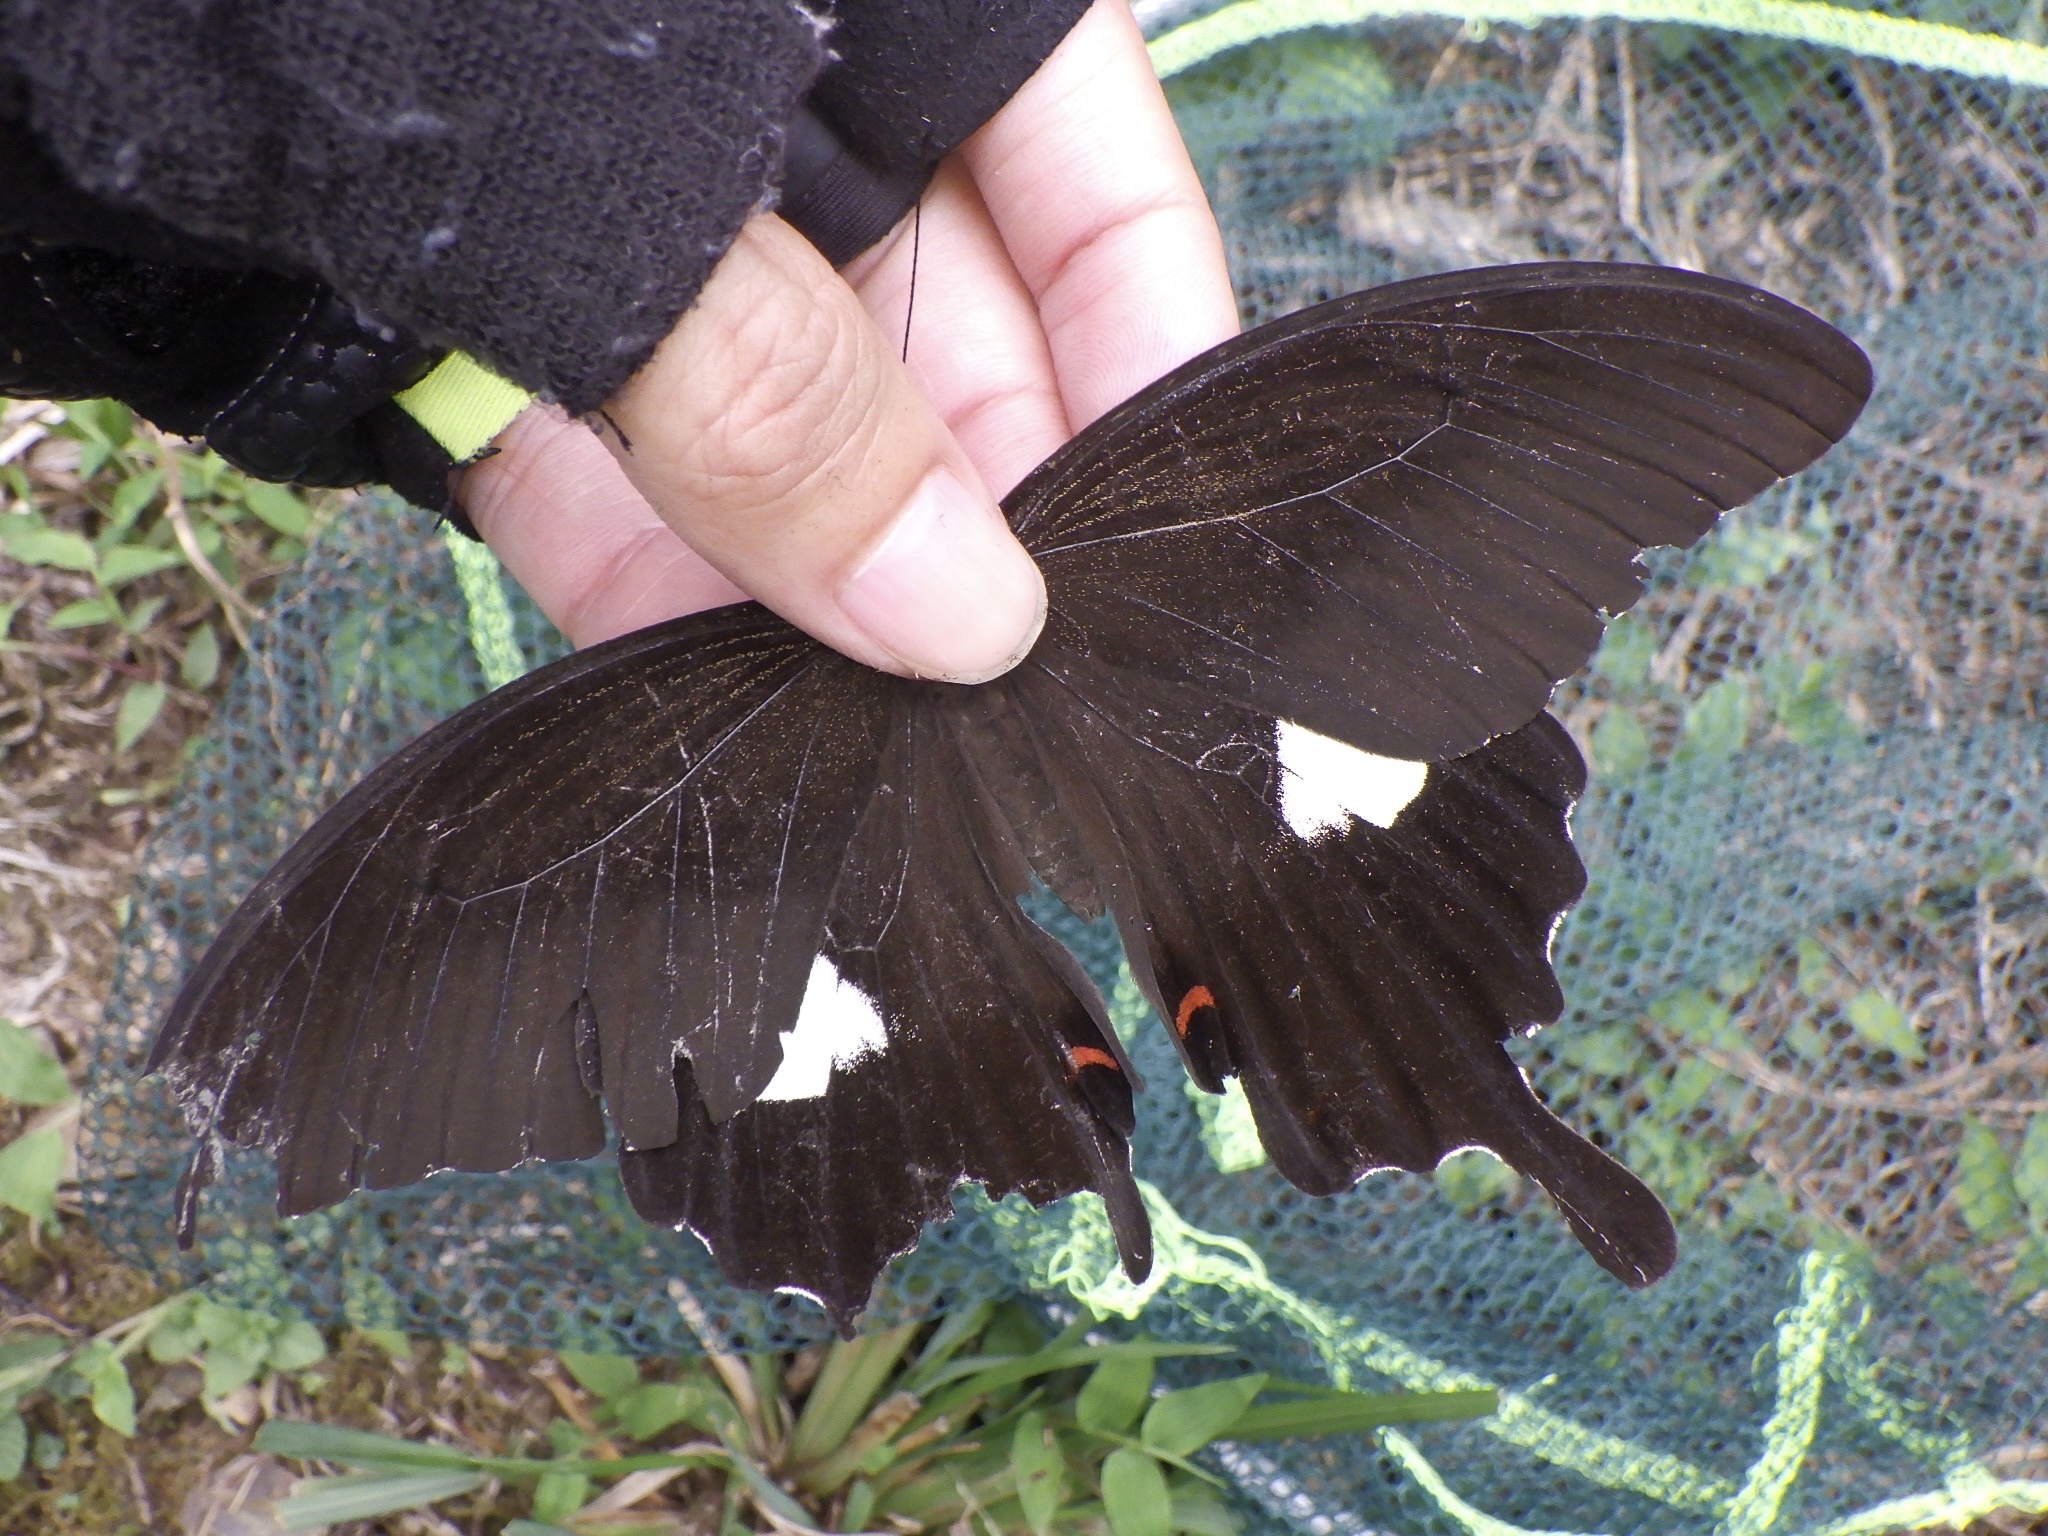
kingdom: Animalia
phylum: Arthropoda
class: Insecta
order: Lepidoptera
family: Papilionidae
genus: Papilio
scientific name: Papilio helenus
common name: Red helen
